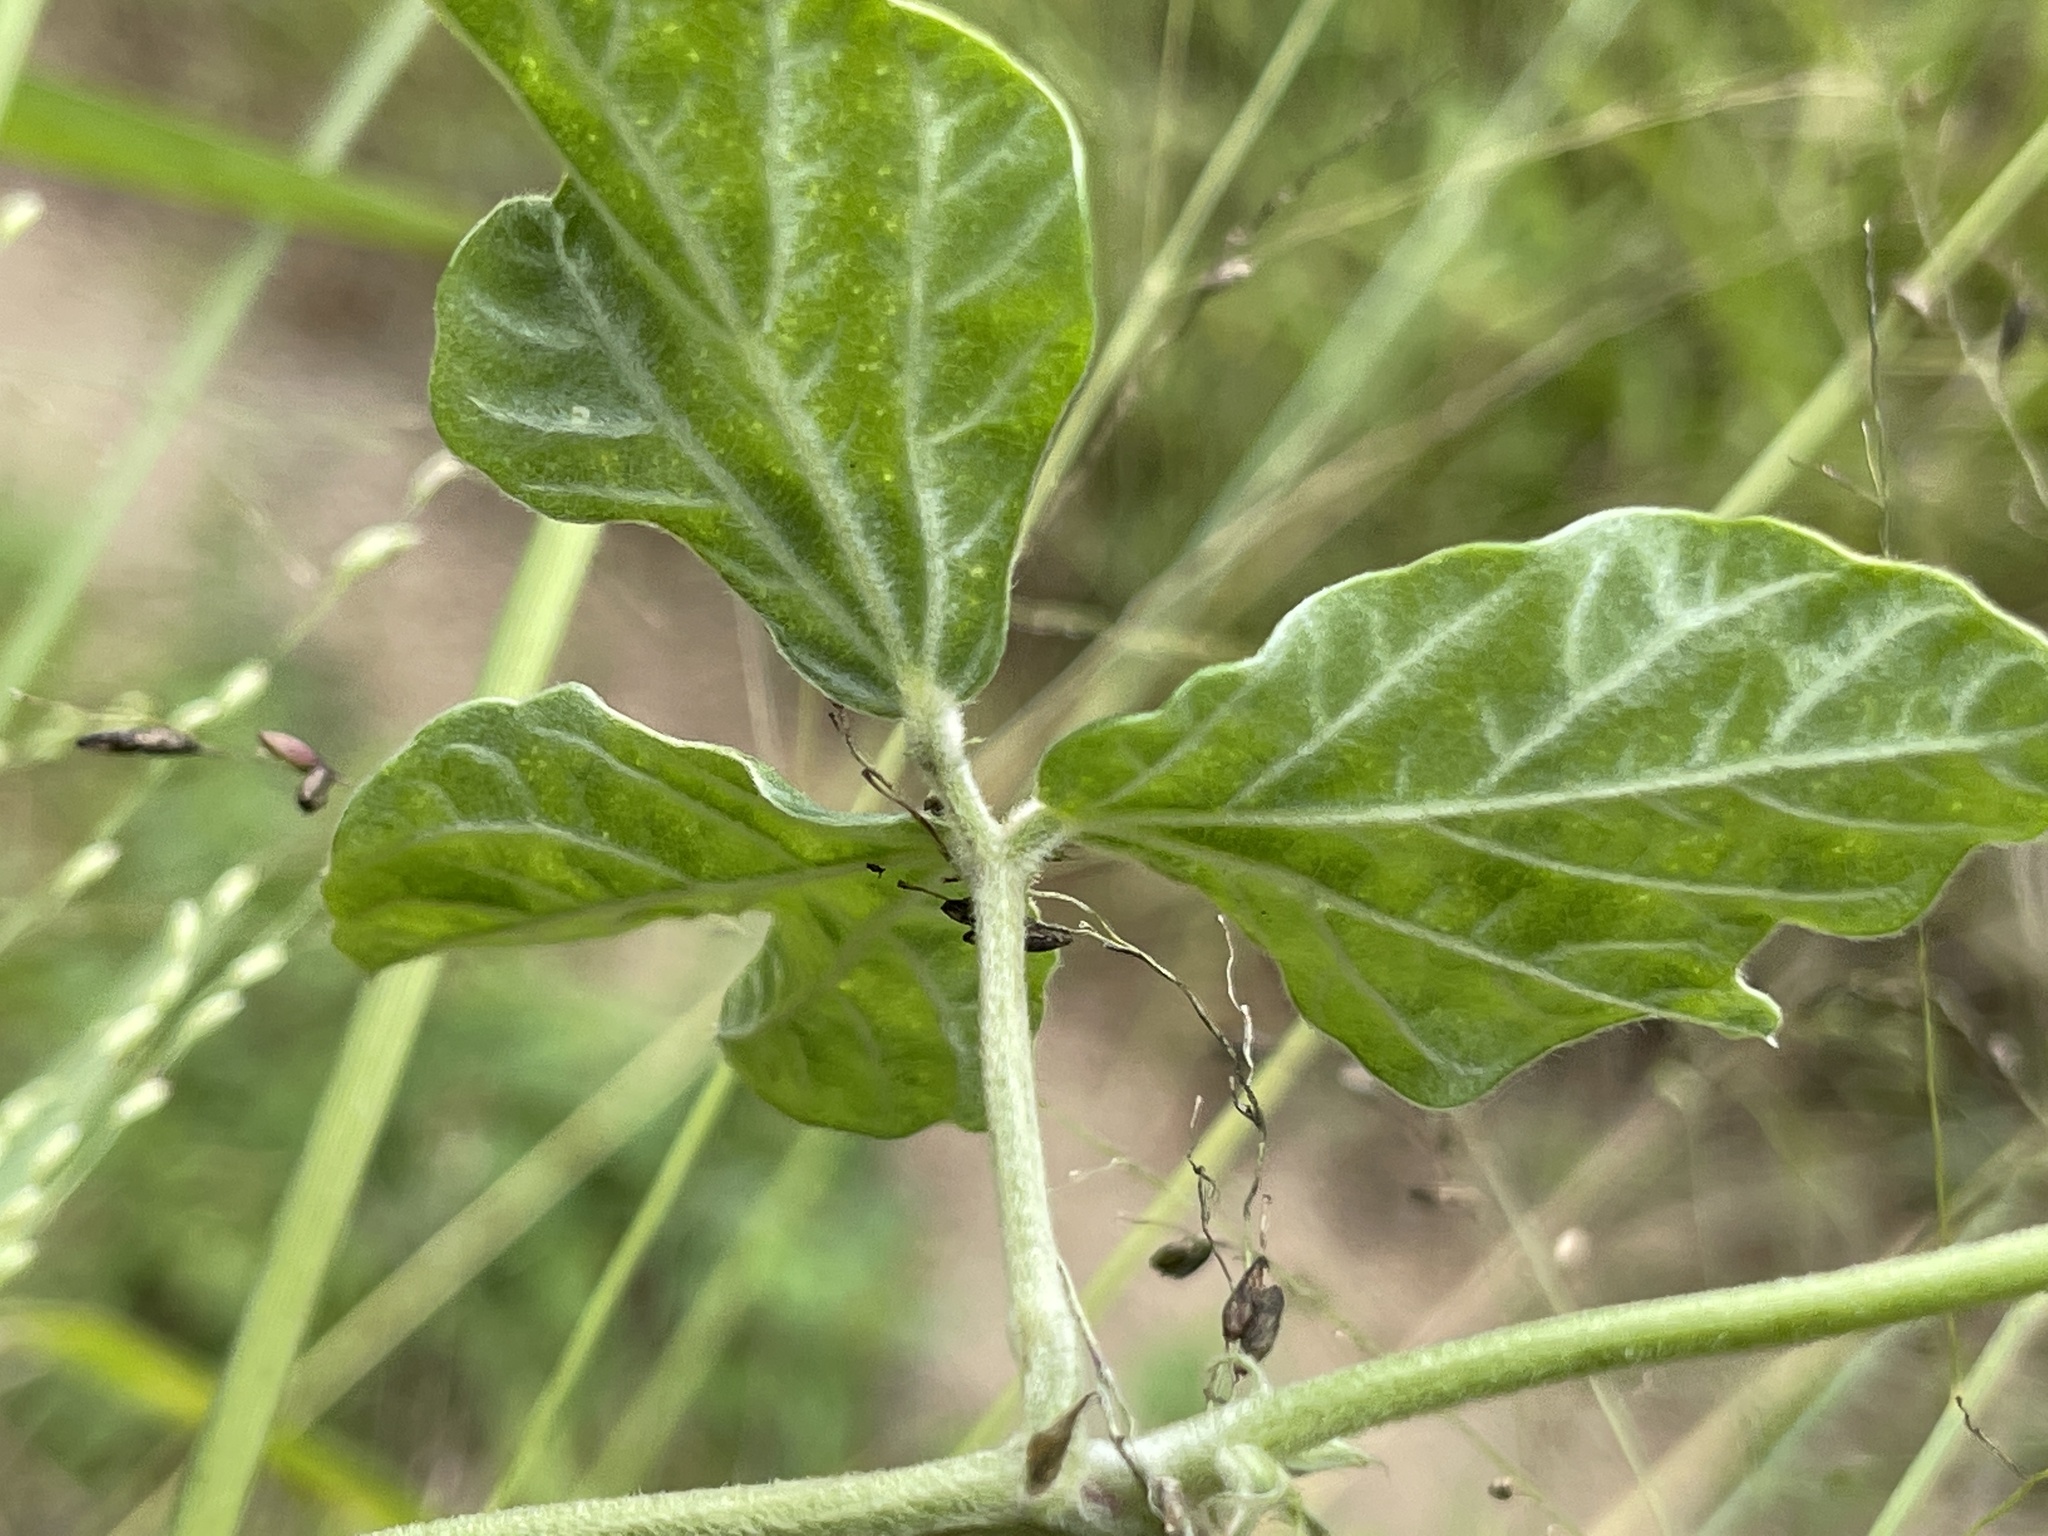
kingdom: Plantae
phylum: Tracheophyta
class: Magnoliopsida
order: Fabales
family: Fabaceae
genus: Macroptilium
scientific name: Macroptilium atropurpureum
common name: Purple bushbean
